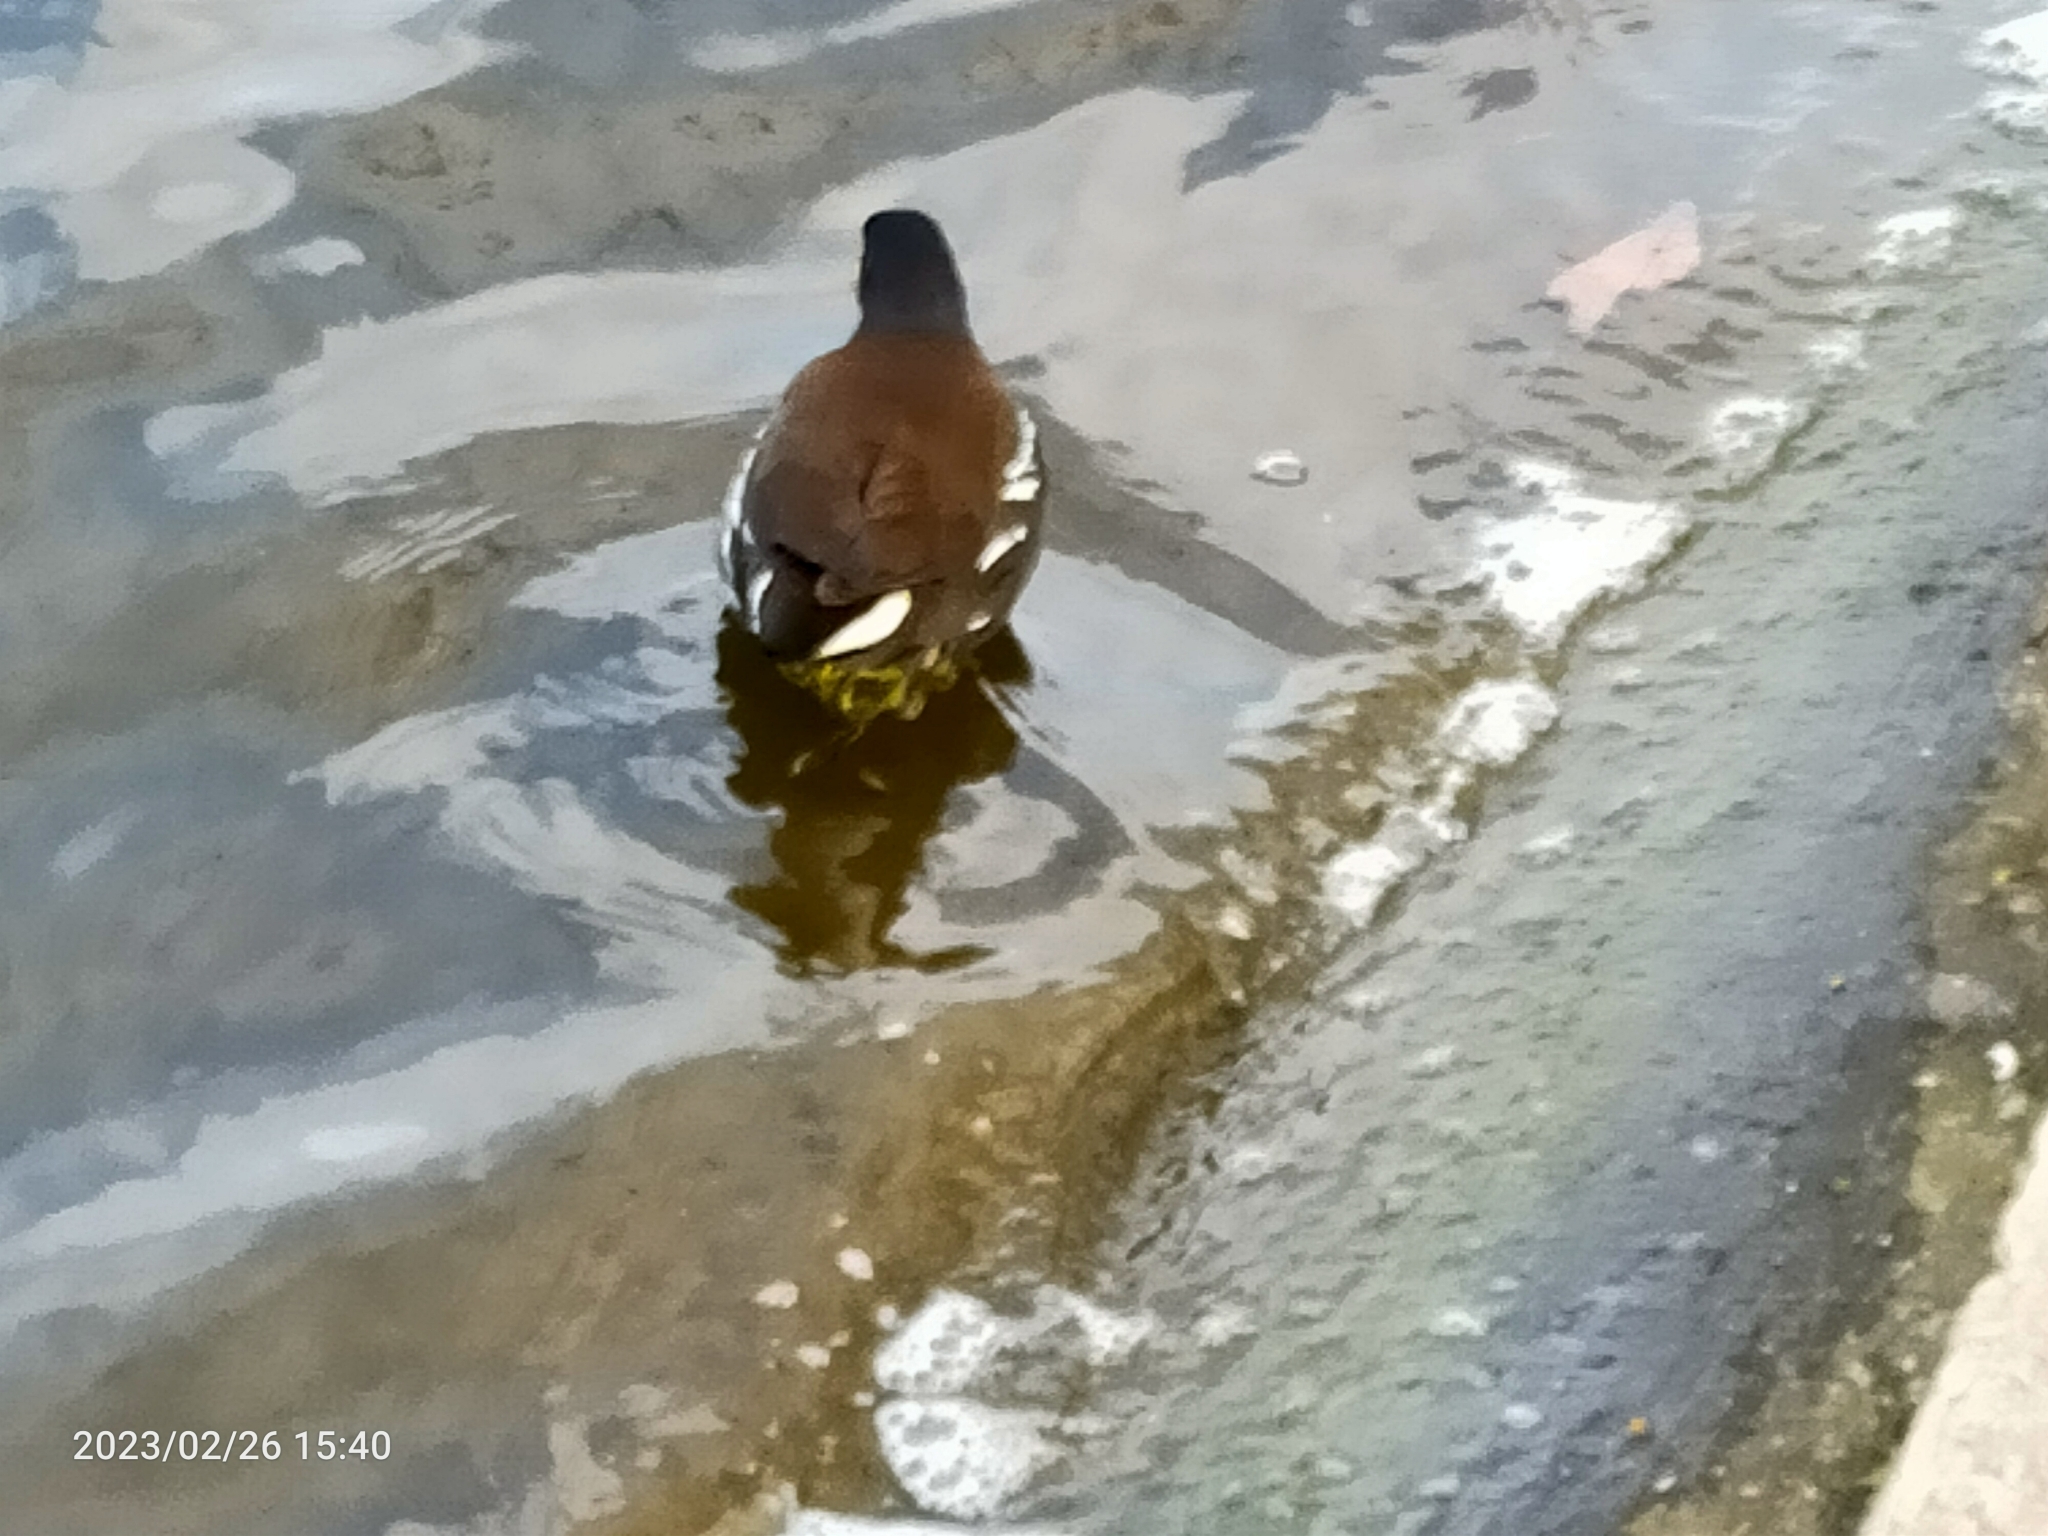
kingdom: Animalia
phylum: Chordata
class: Aves
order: Gruiformes
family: Rallidae
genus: Gallinula
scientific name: Gallinula chloropus
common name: Common moorhen
